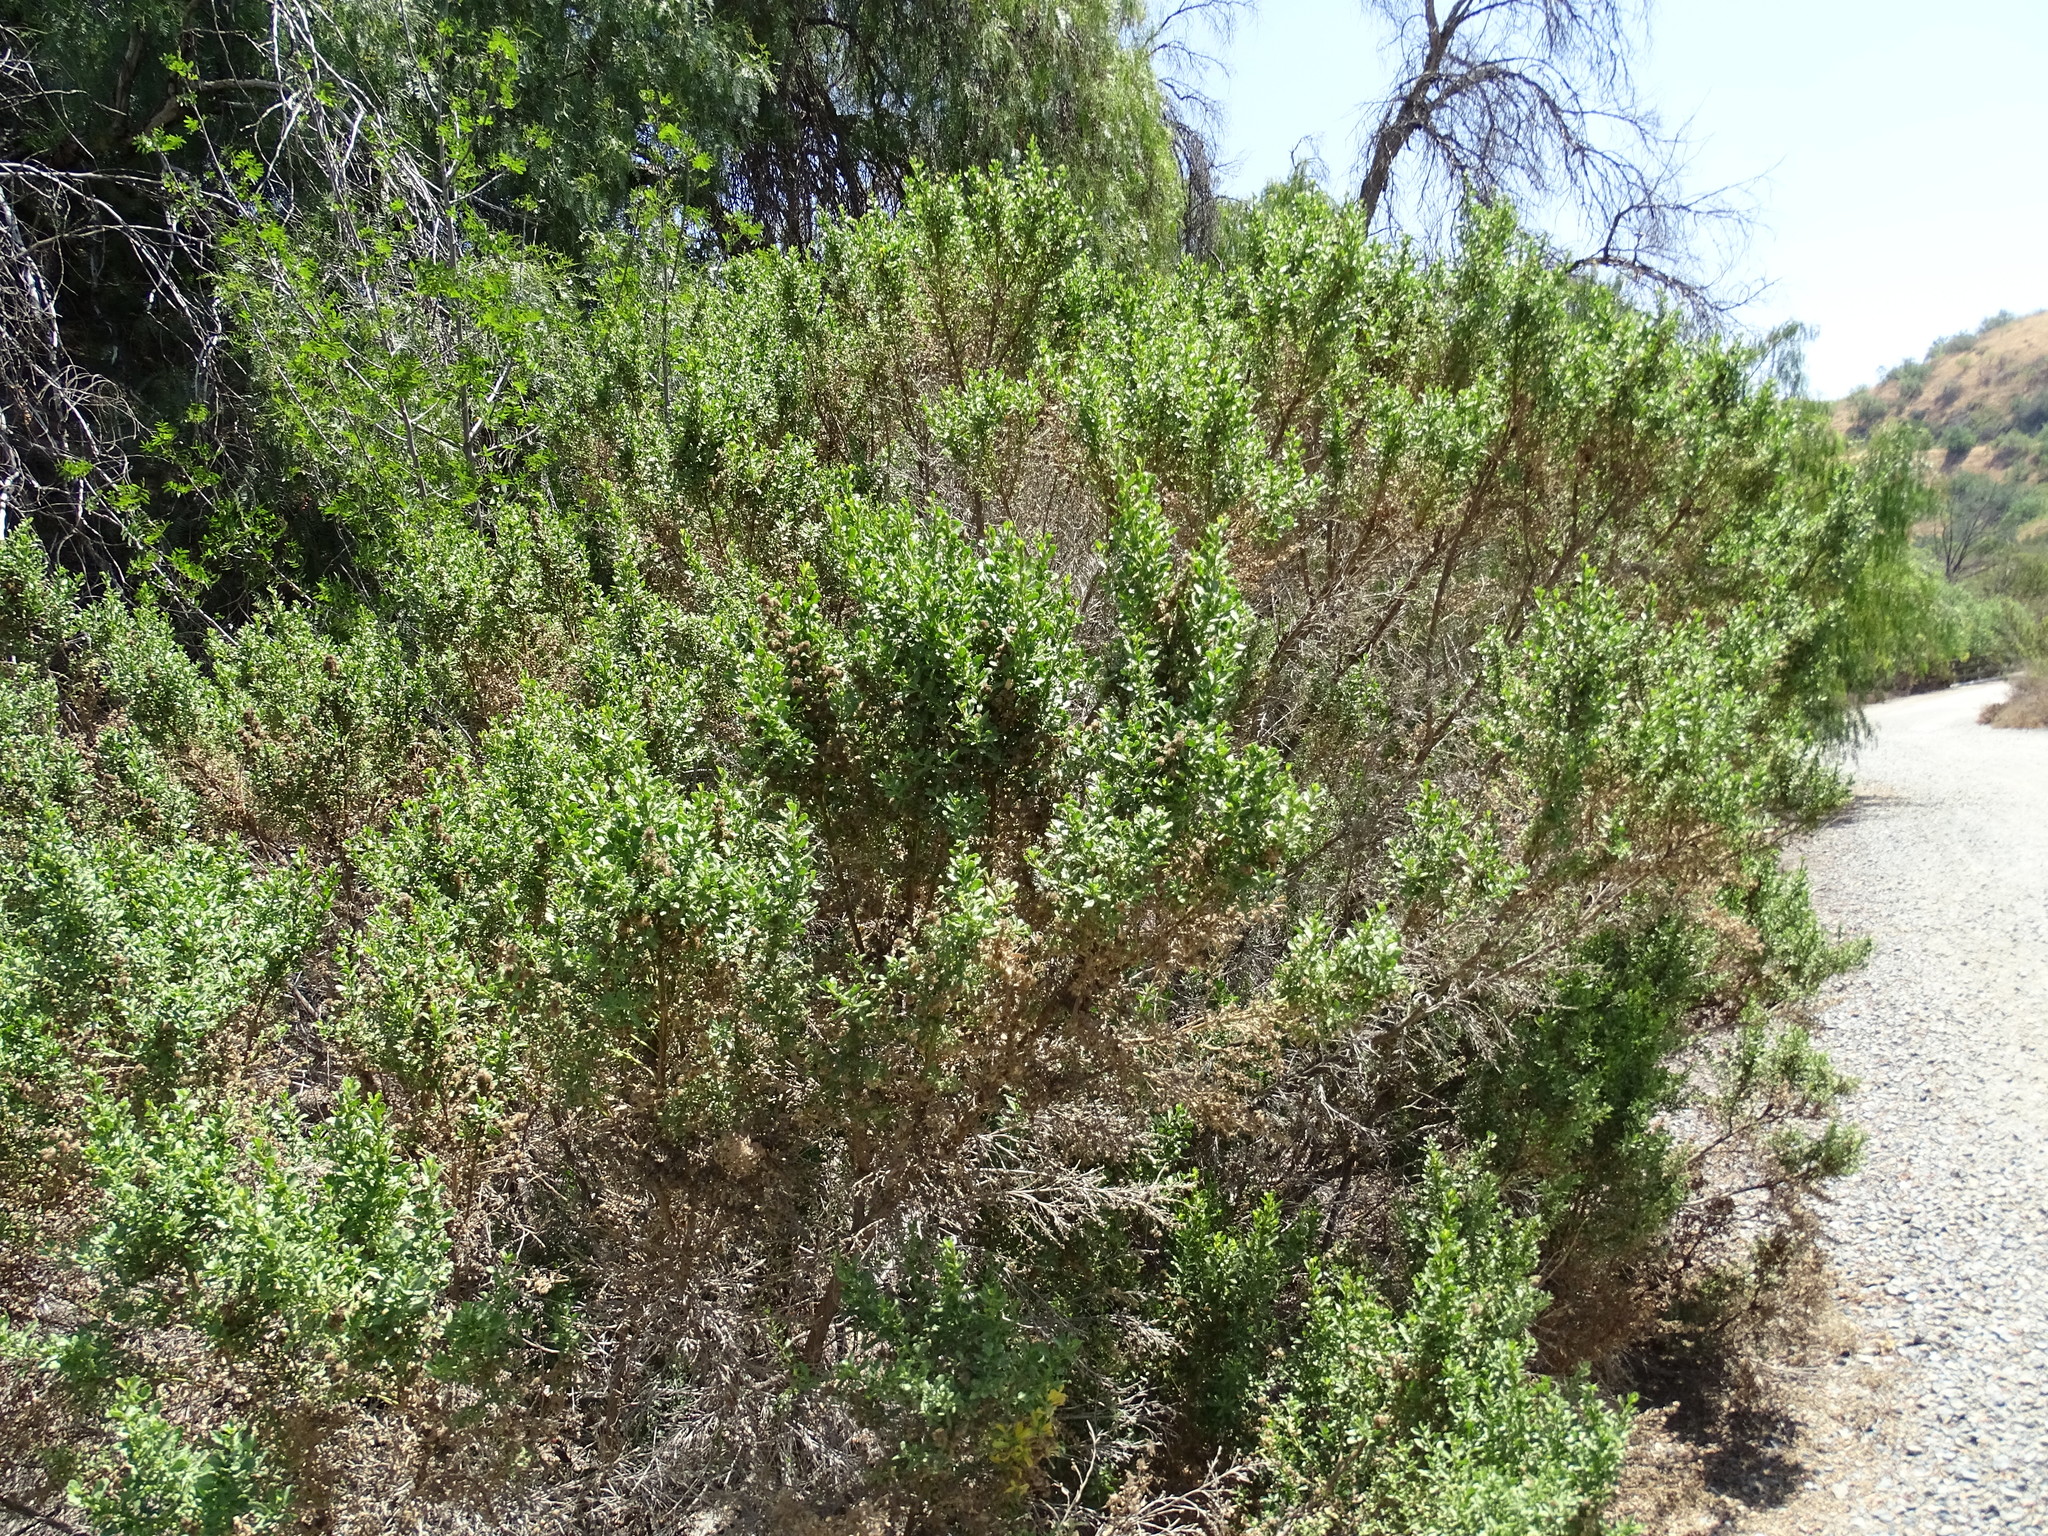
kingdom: Plantae
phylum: Tracheophyta
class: Magnoliopsida
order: Asterales
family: Asteraceae
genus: Baccharis
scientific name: Baccharis pilularis
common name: Coyotebrush
